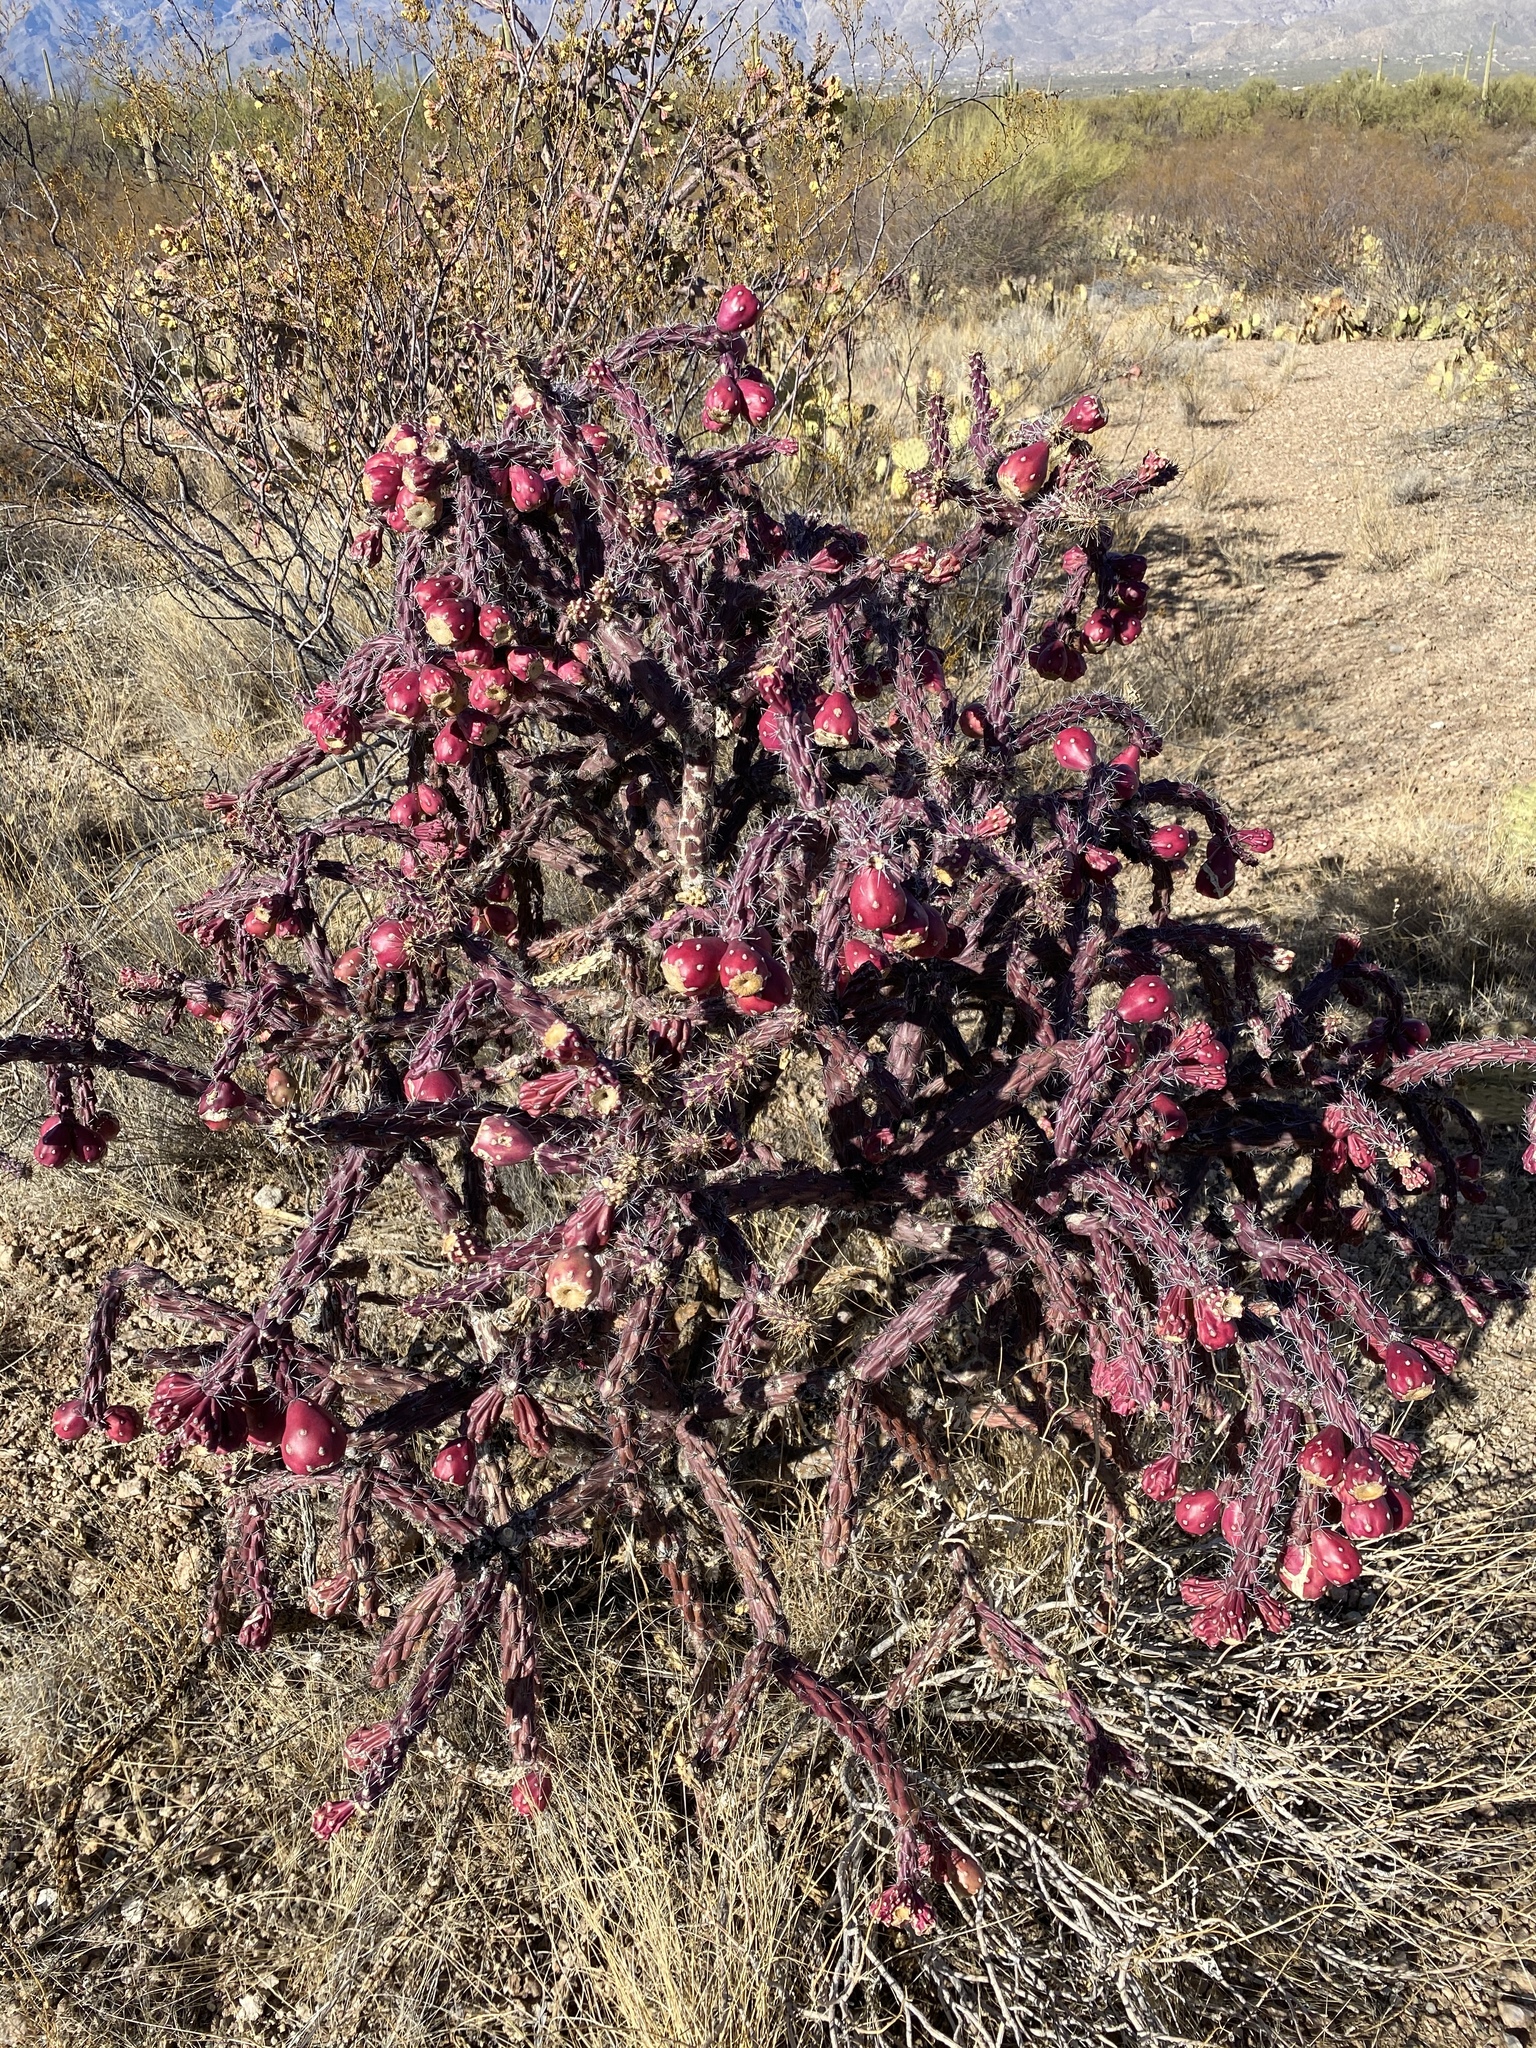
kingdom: Plantae
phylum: Tracheophyta
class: Magnoliopsida
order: Caryophyllales
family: Cactaceae
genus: Cylindropuntia
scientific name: Cylindropuntia thurberi
